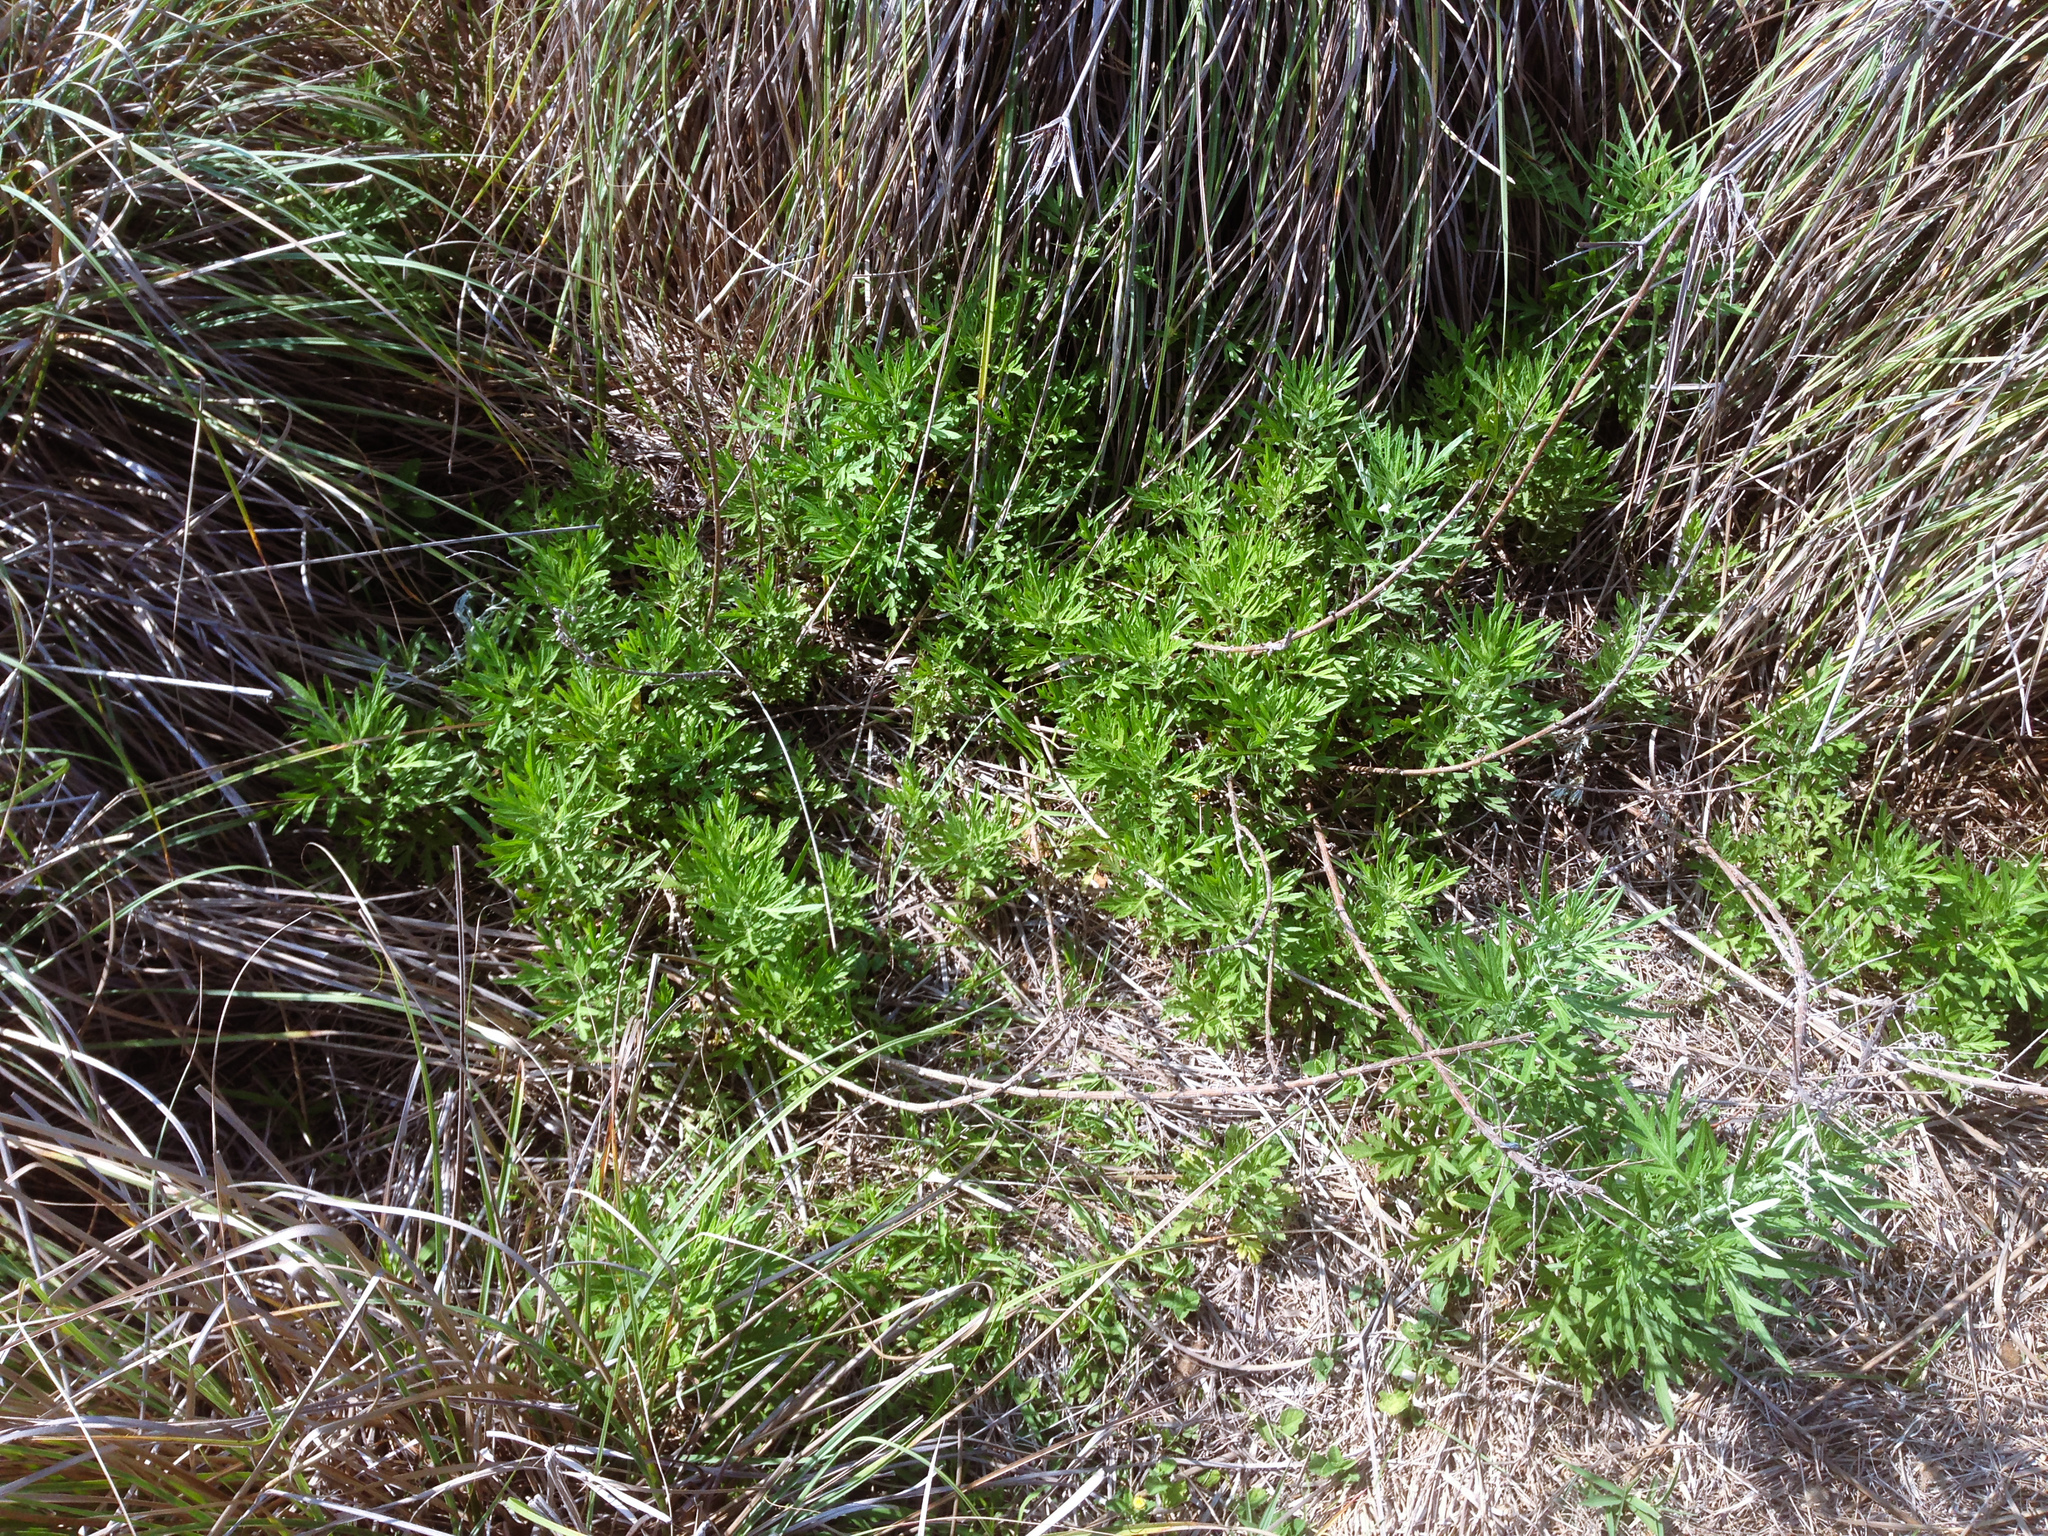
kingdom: Plantae
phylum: Tracheophyta
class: Magnoliopsida
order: Asterales
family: Asteraceae
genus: Artemisia
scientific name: Artemisia indica
